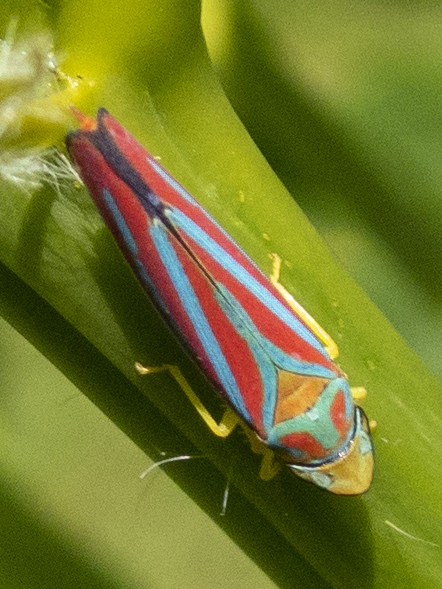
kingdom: Animalia
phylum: Arthropoda
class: Insecta
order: Hemiptera
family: Cicadellidae
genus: Graphocephala
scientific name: Graphocephala coccinea
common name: Candy-striped leafhopper
